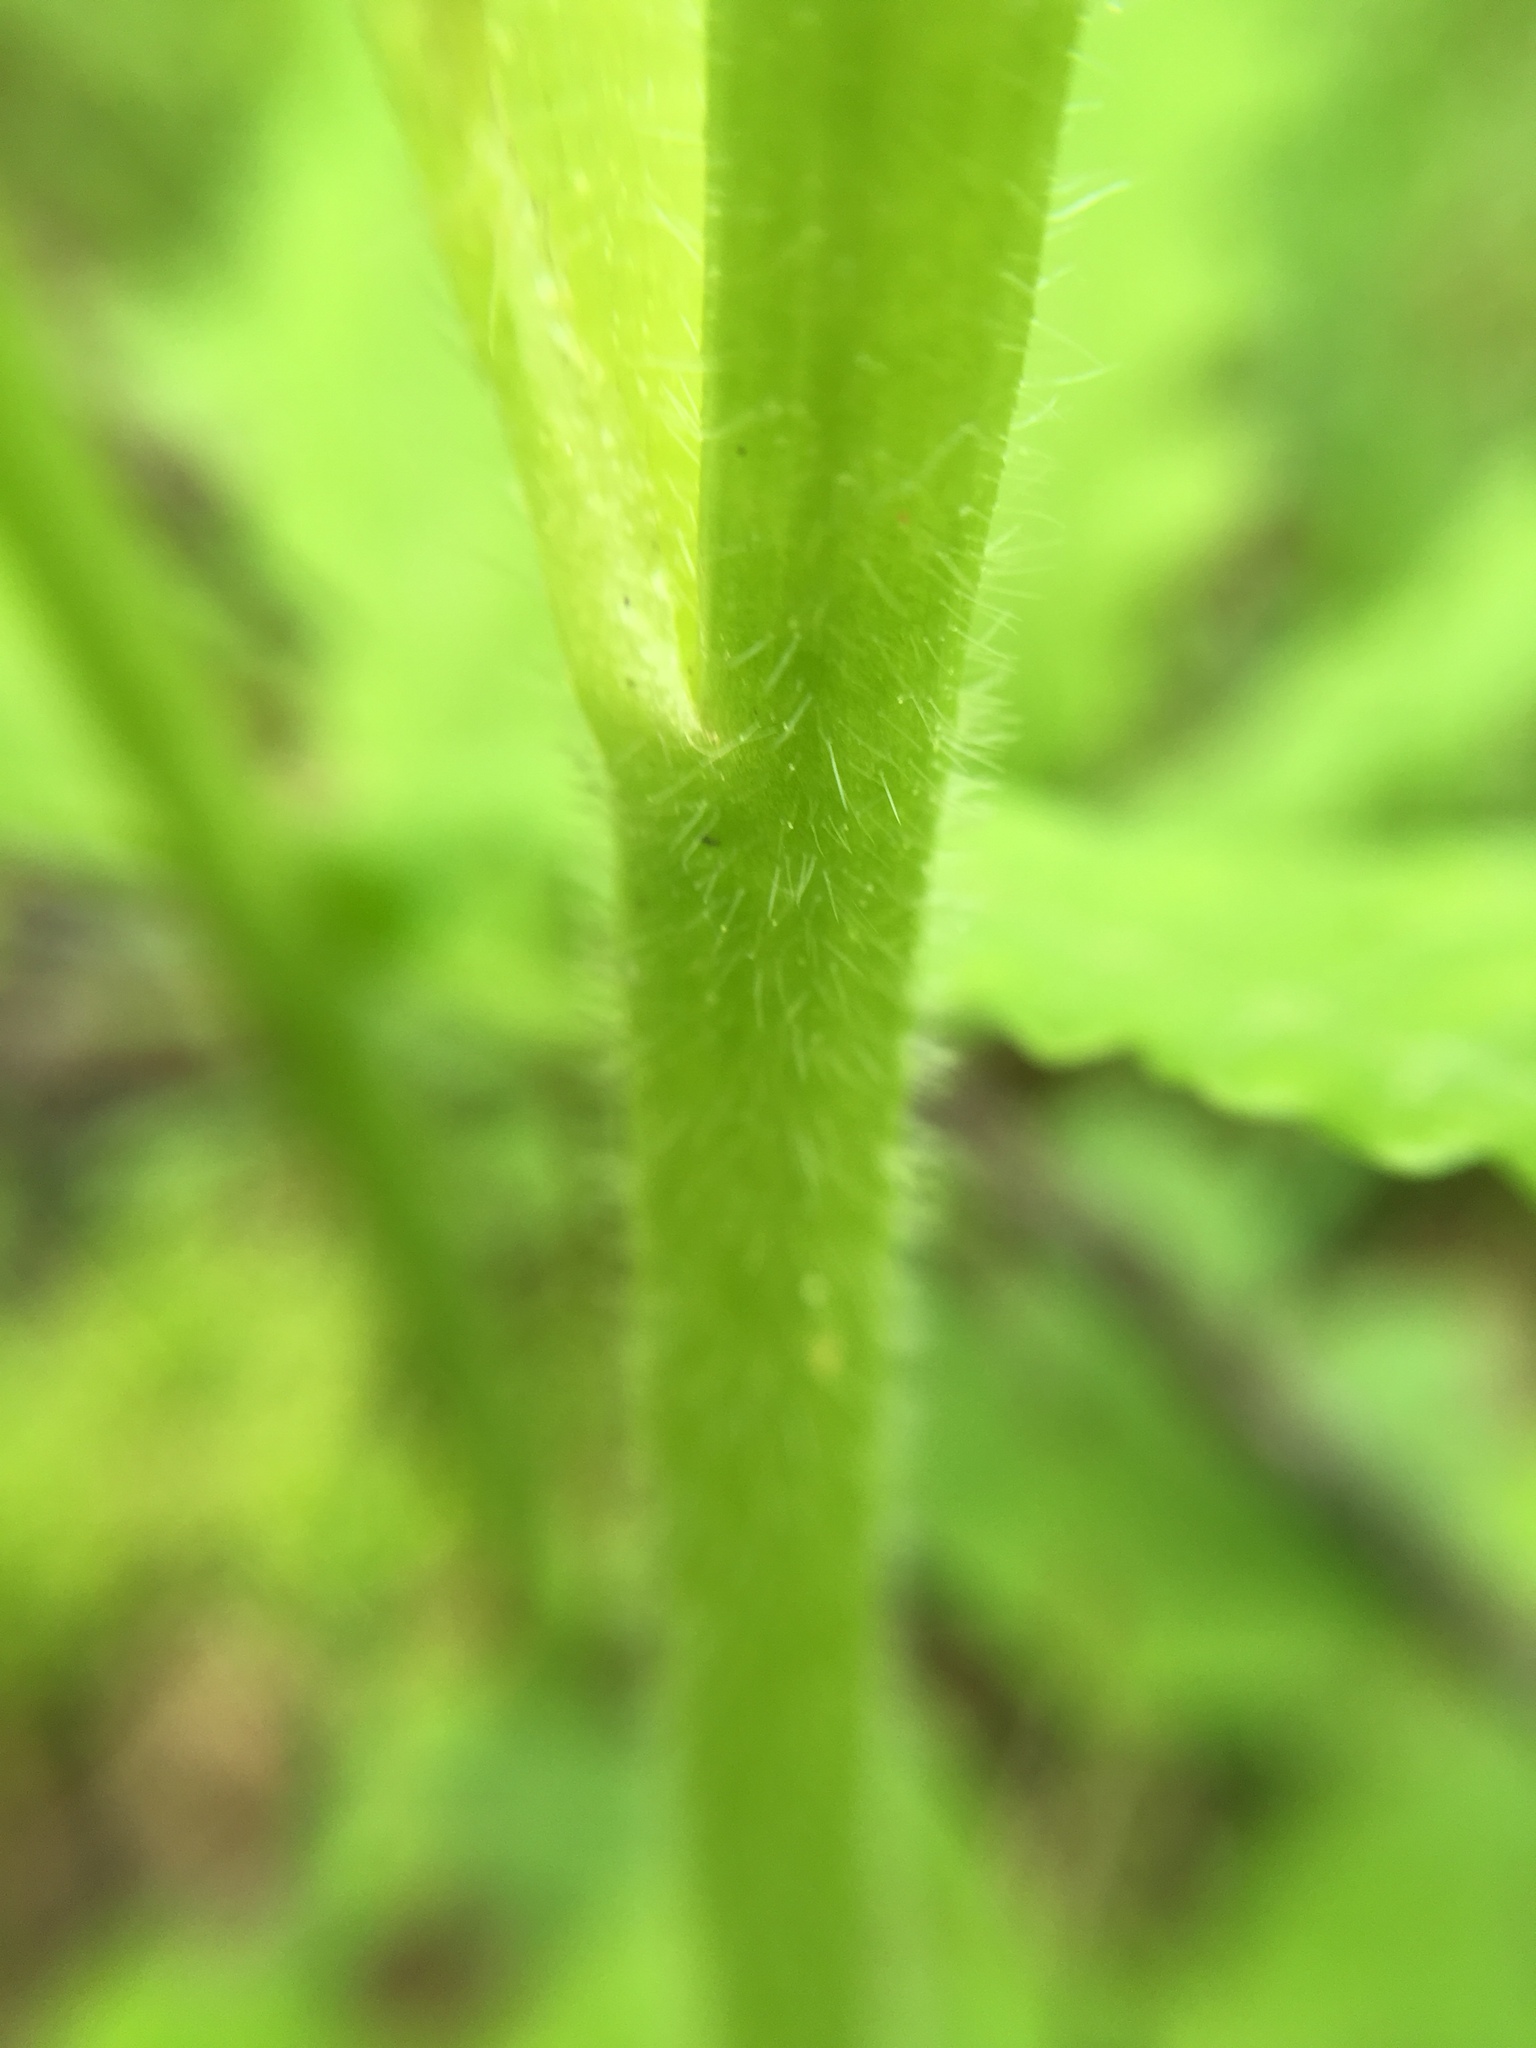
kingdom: Plantae
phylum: Tracheophyta
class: Magnoliopsida
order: Ranunculales
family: Ranunculaceae
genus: Ranunculus
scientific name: Ranunculus hispidus
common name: Bristly buttercup
